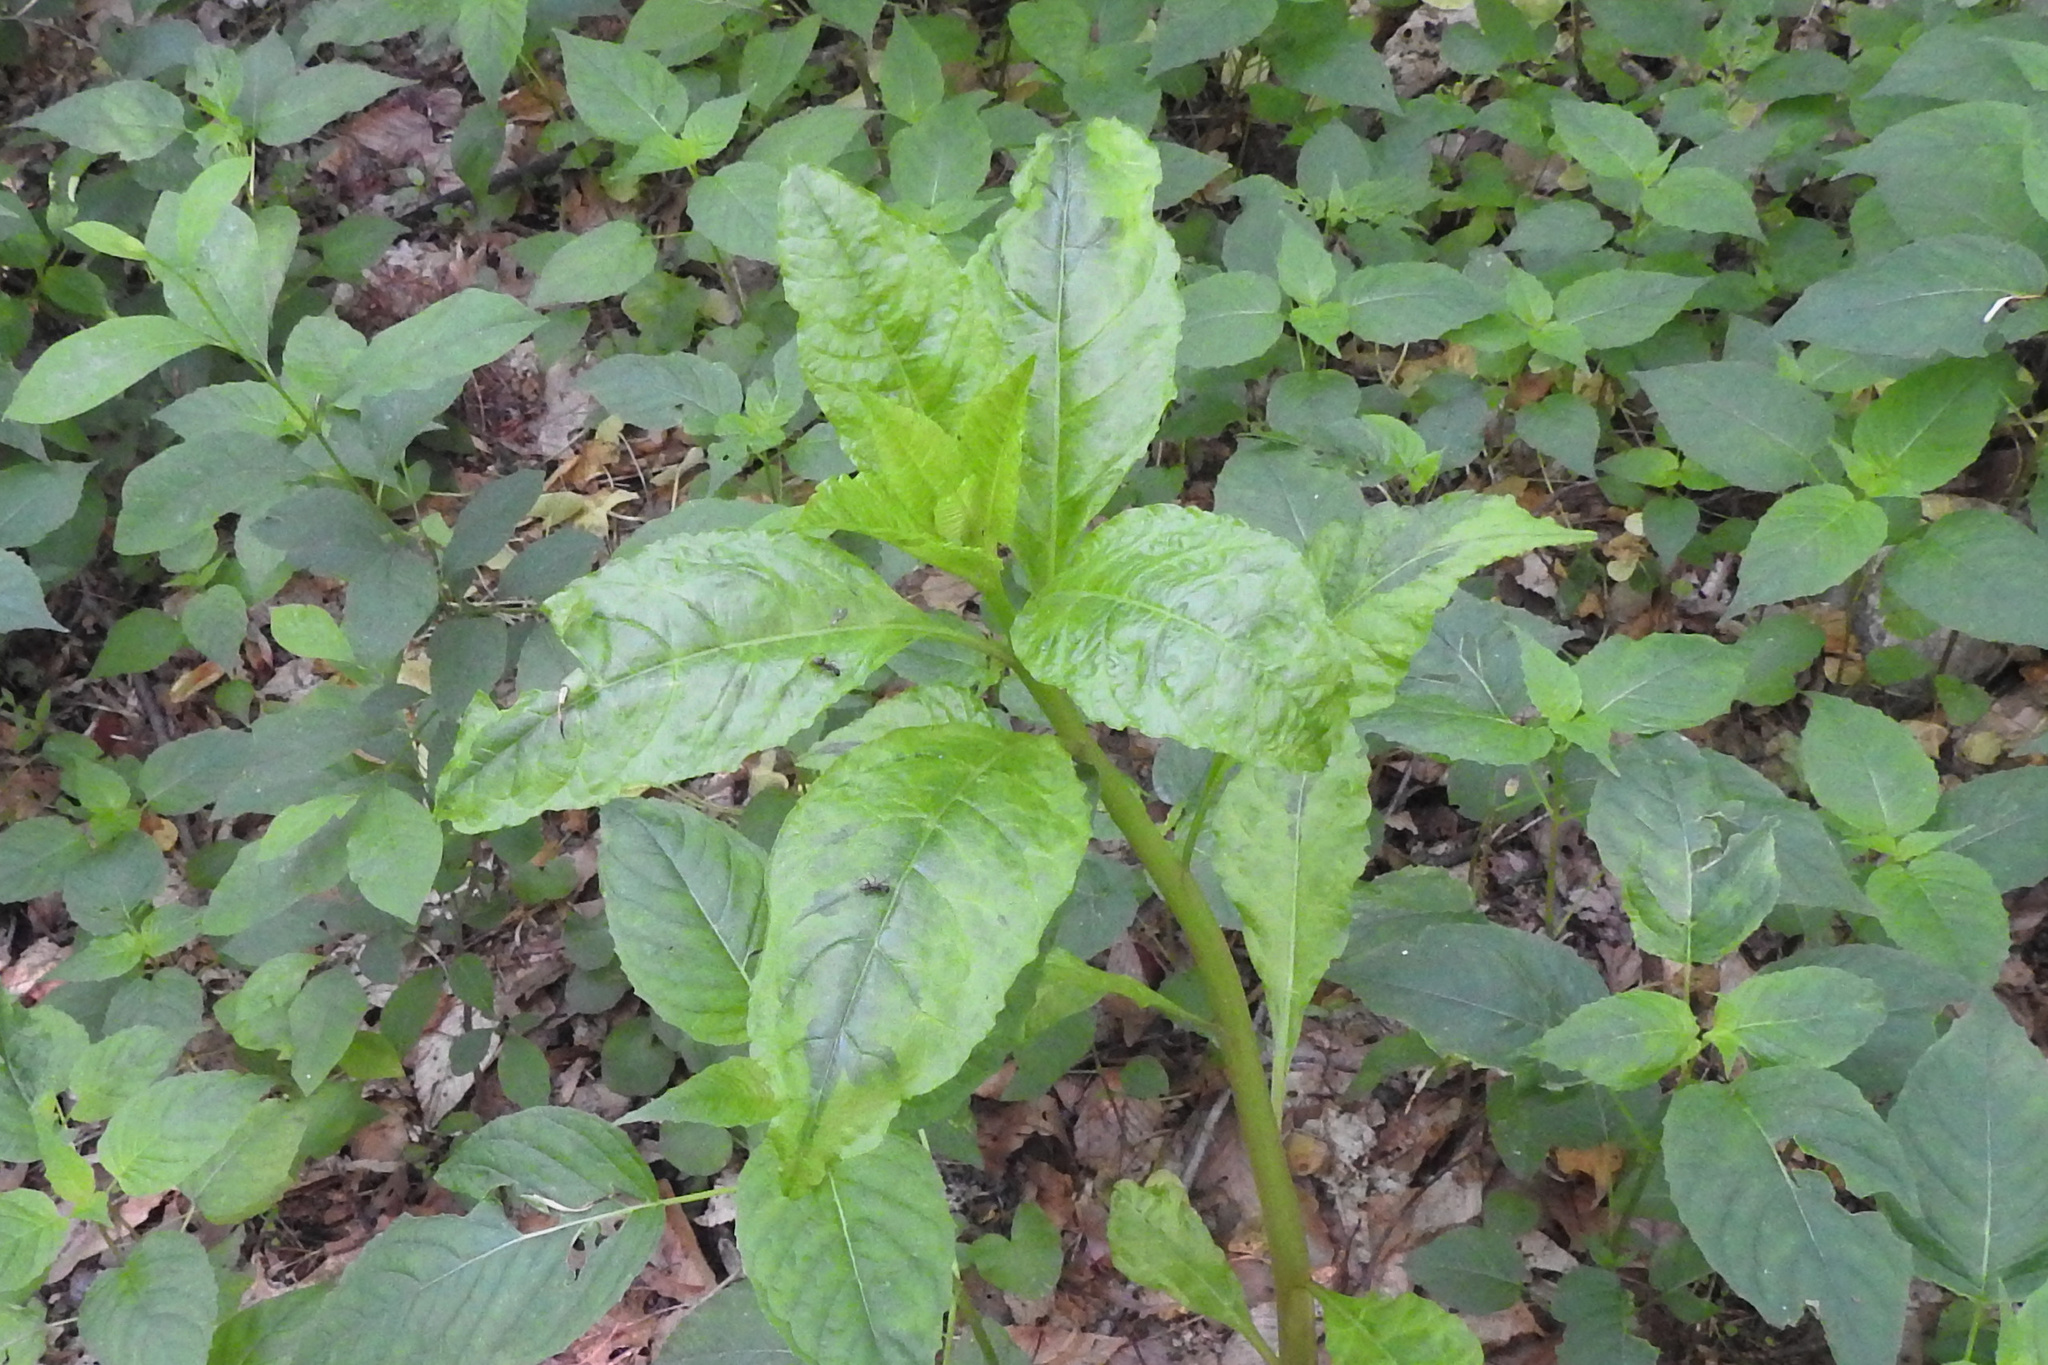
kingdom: Plantae
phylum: Tracheophyta
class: Magnoliopsida
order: Caryophyllales
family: Phytolaccaceae
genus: Phytolacca
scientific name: Phytolacca americana
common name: American pokeweed
